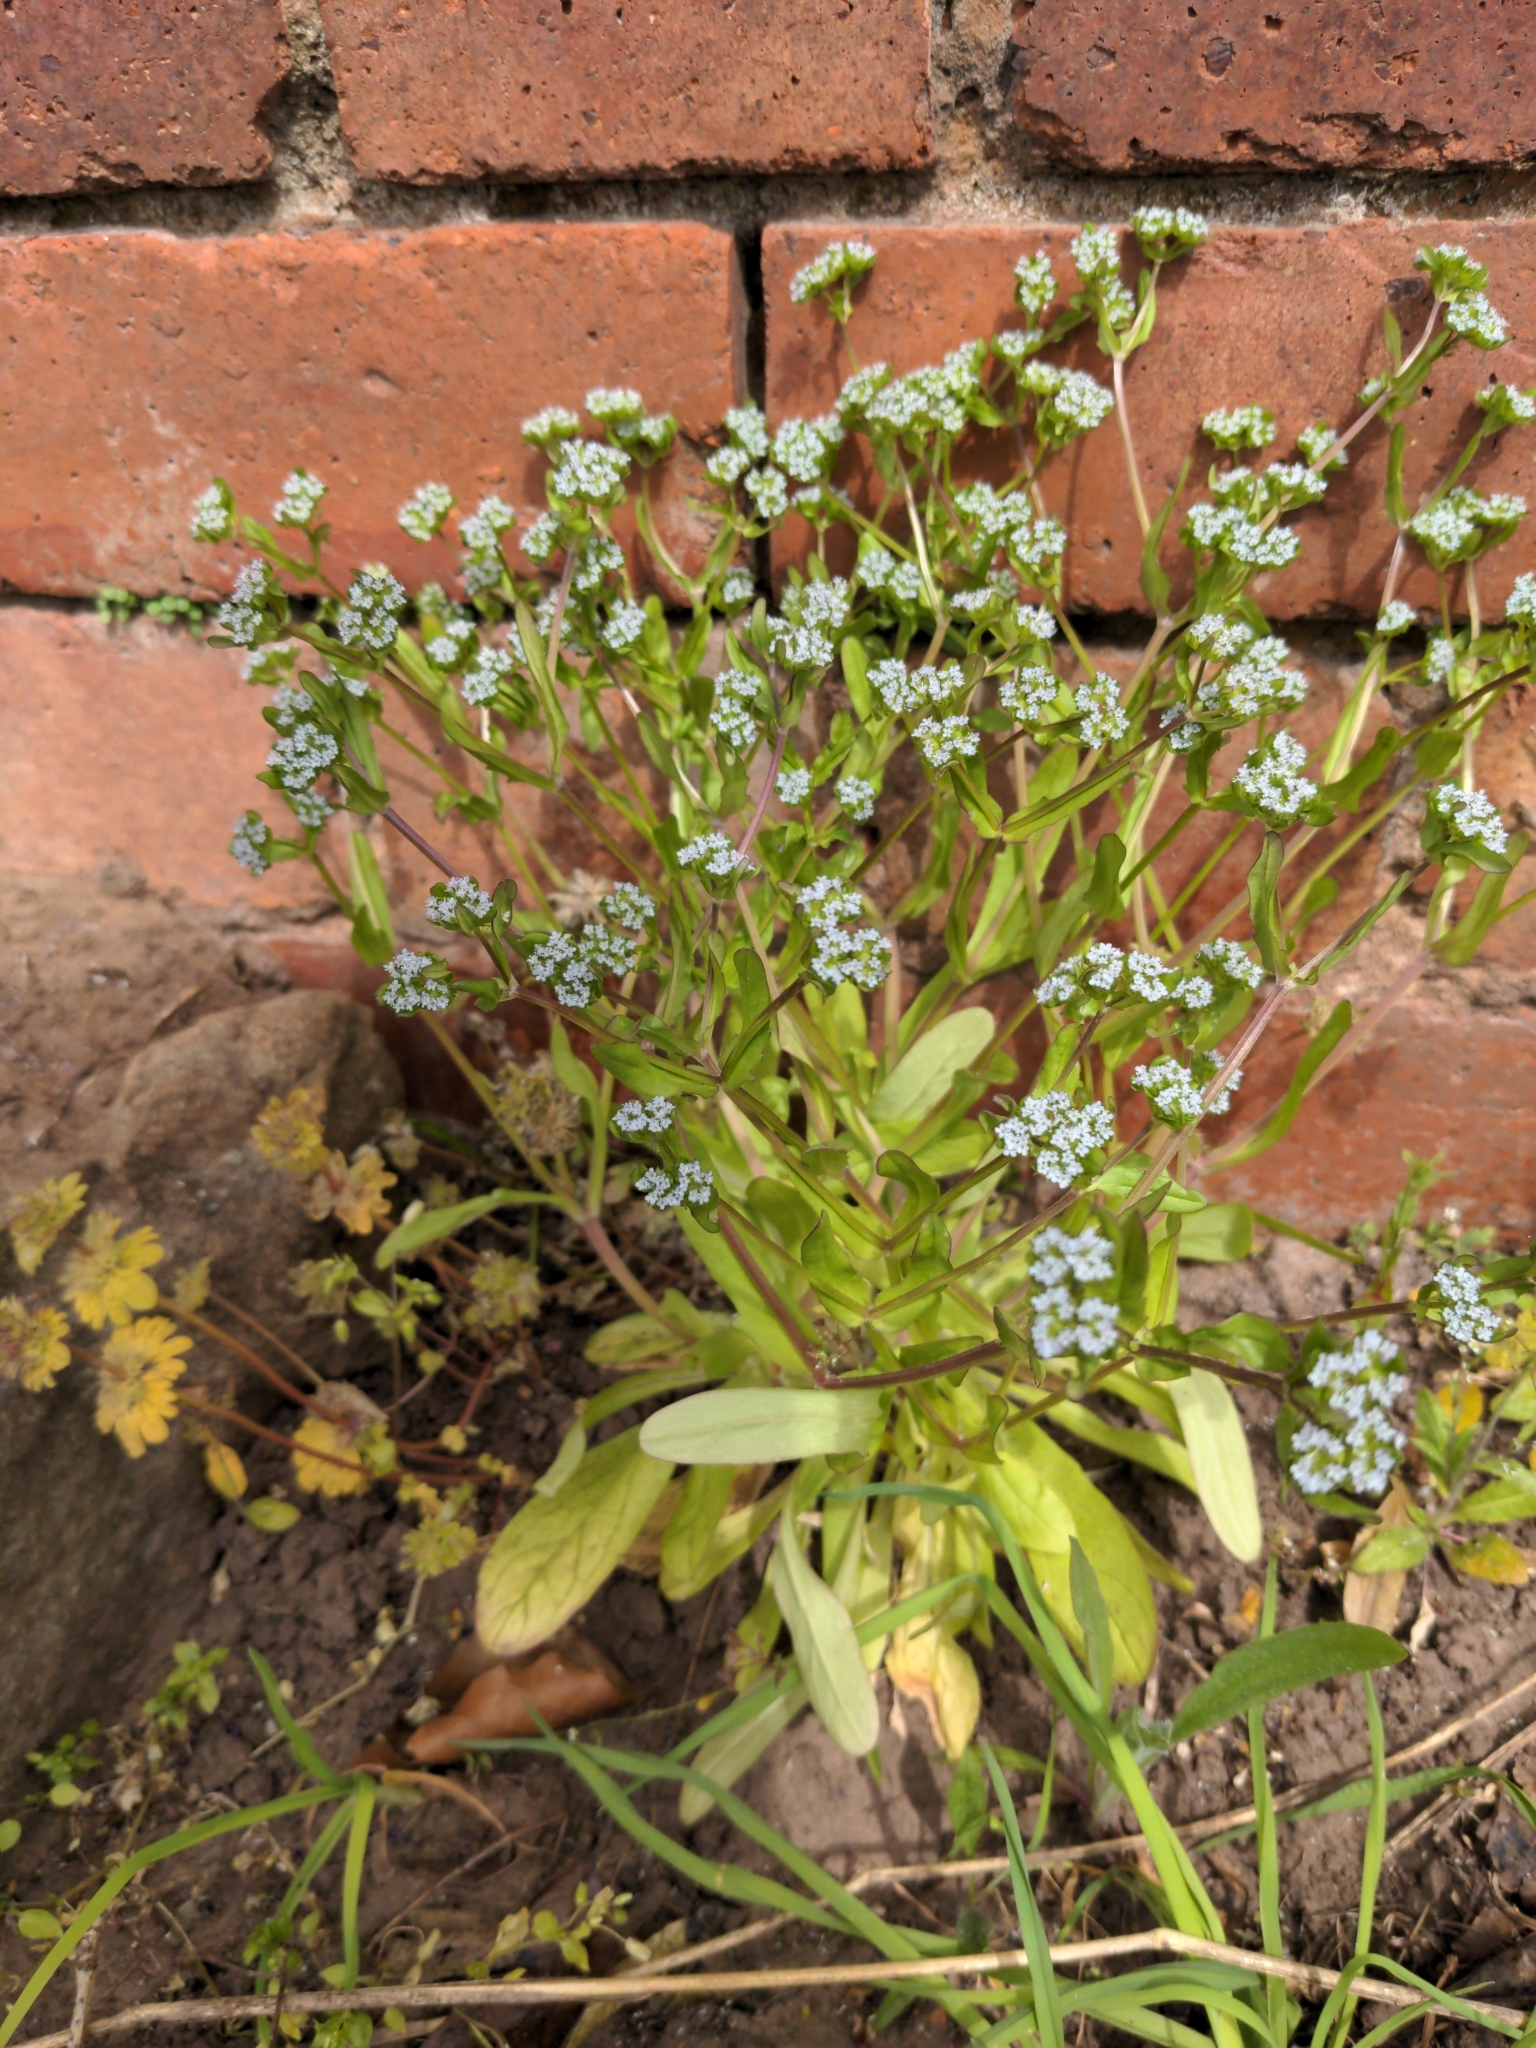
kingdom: Plantae
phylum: Tracheophyta
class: Magnoliopsida
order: Dipsacales
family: Caprifoliaceae
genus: Valerianella
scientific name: Valerianella locusta
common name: Common cornsalad
